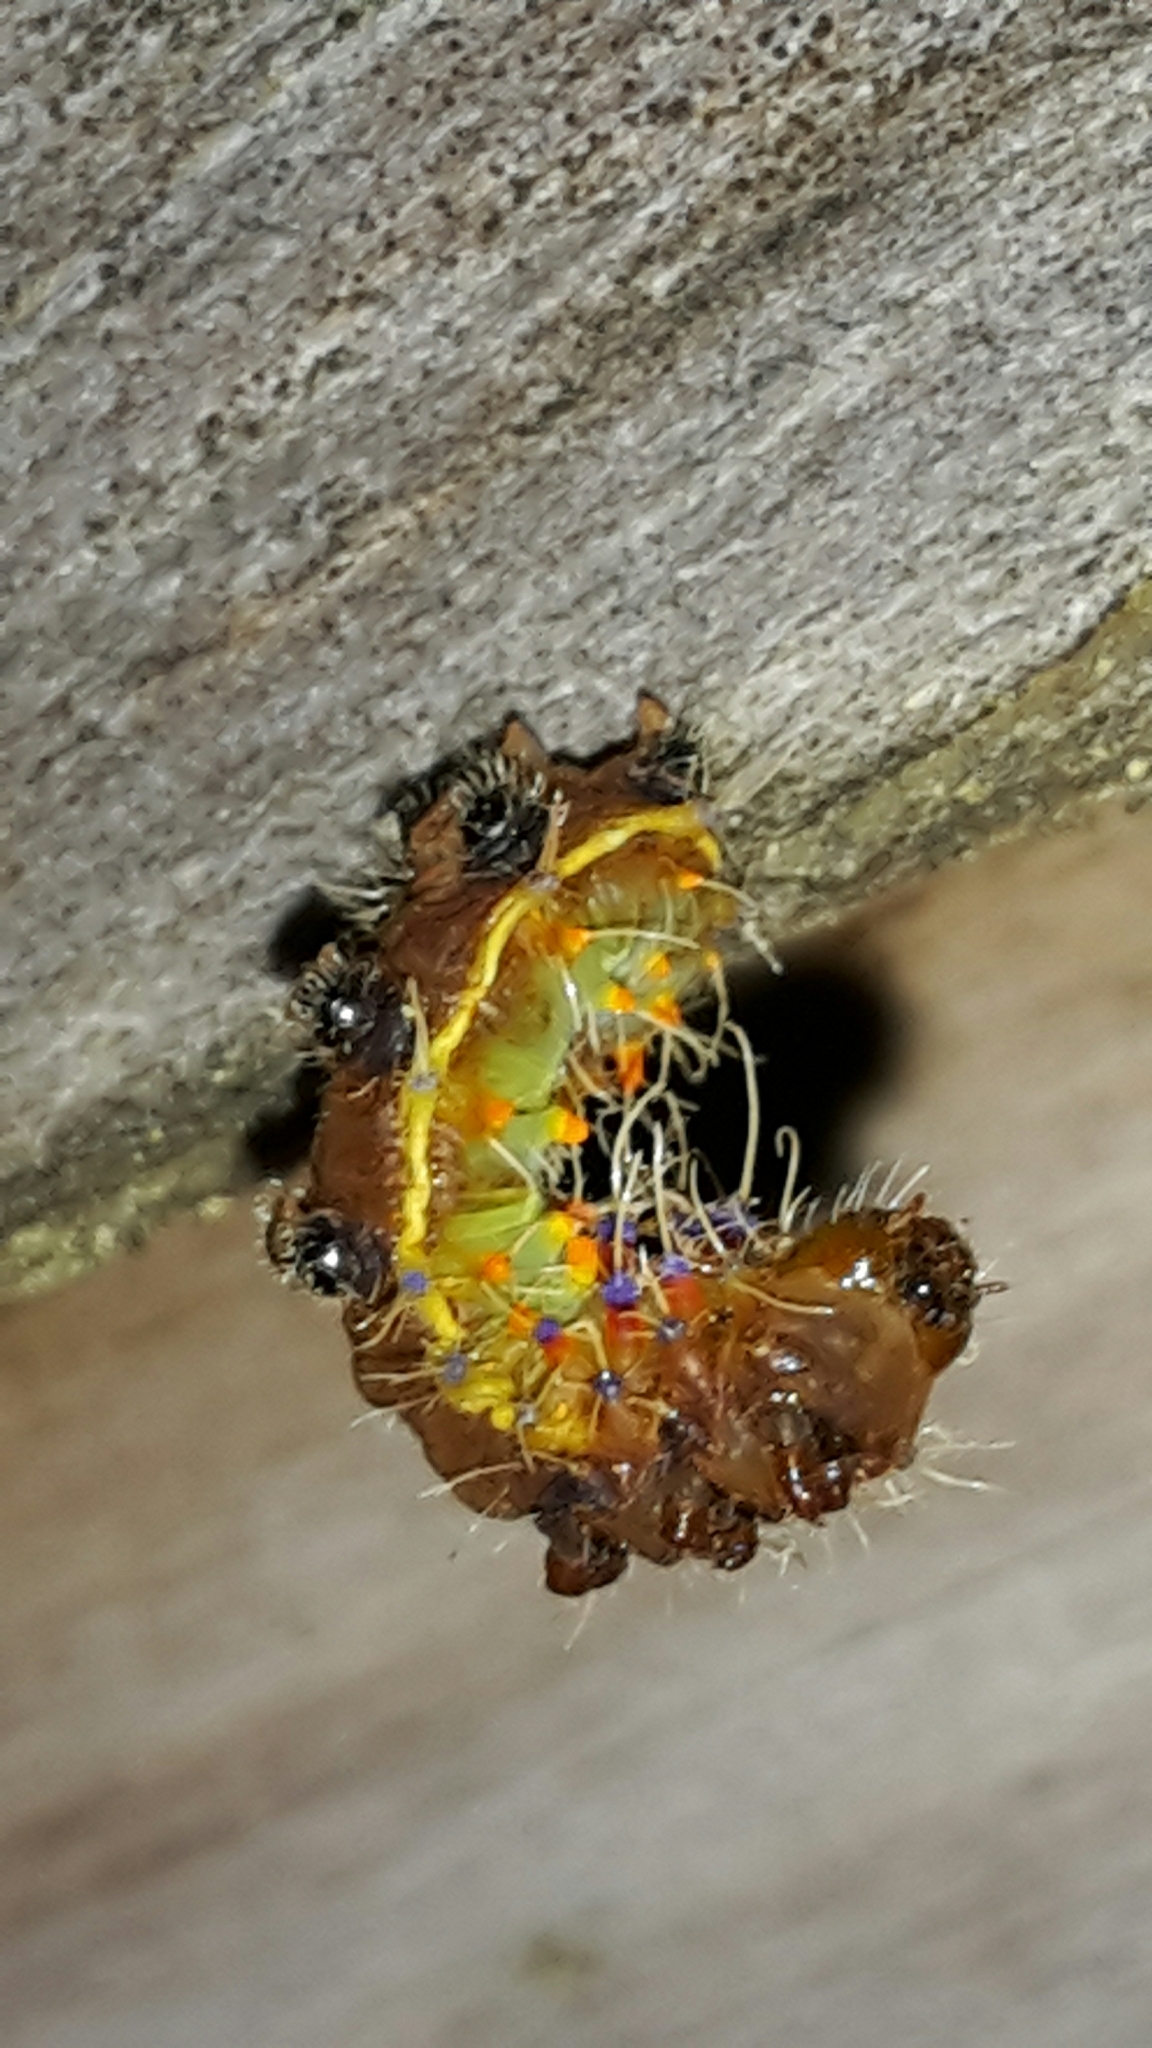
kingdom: Animalia
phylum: Arthropoda
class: Insecta
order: Lepidoptera
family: Saturniidae
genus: Opodiphthera
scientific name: Opodiphthera
